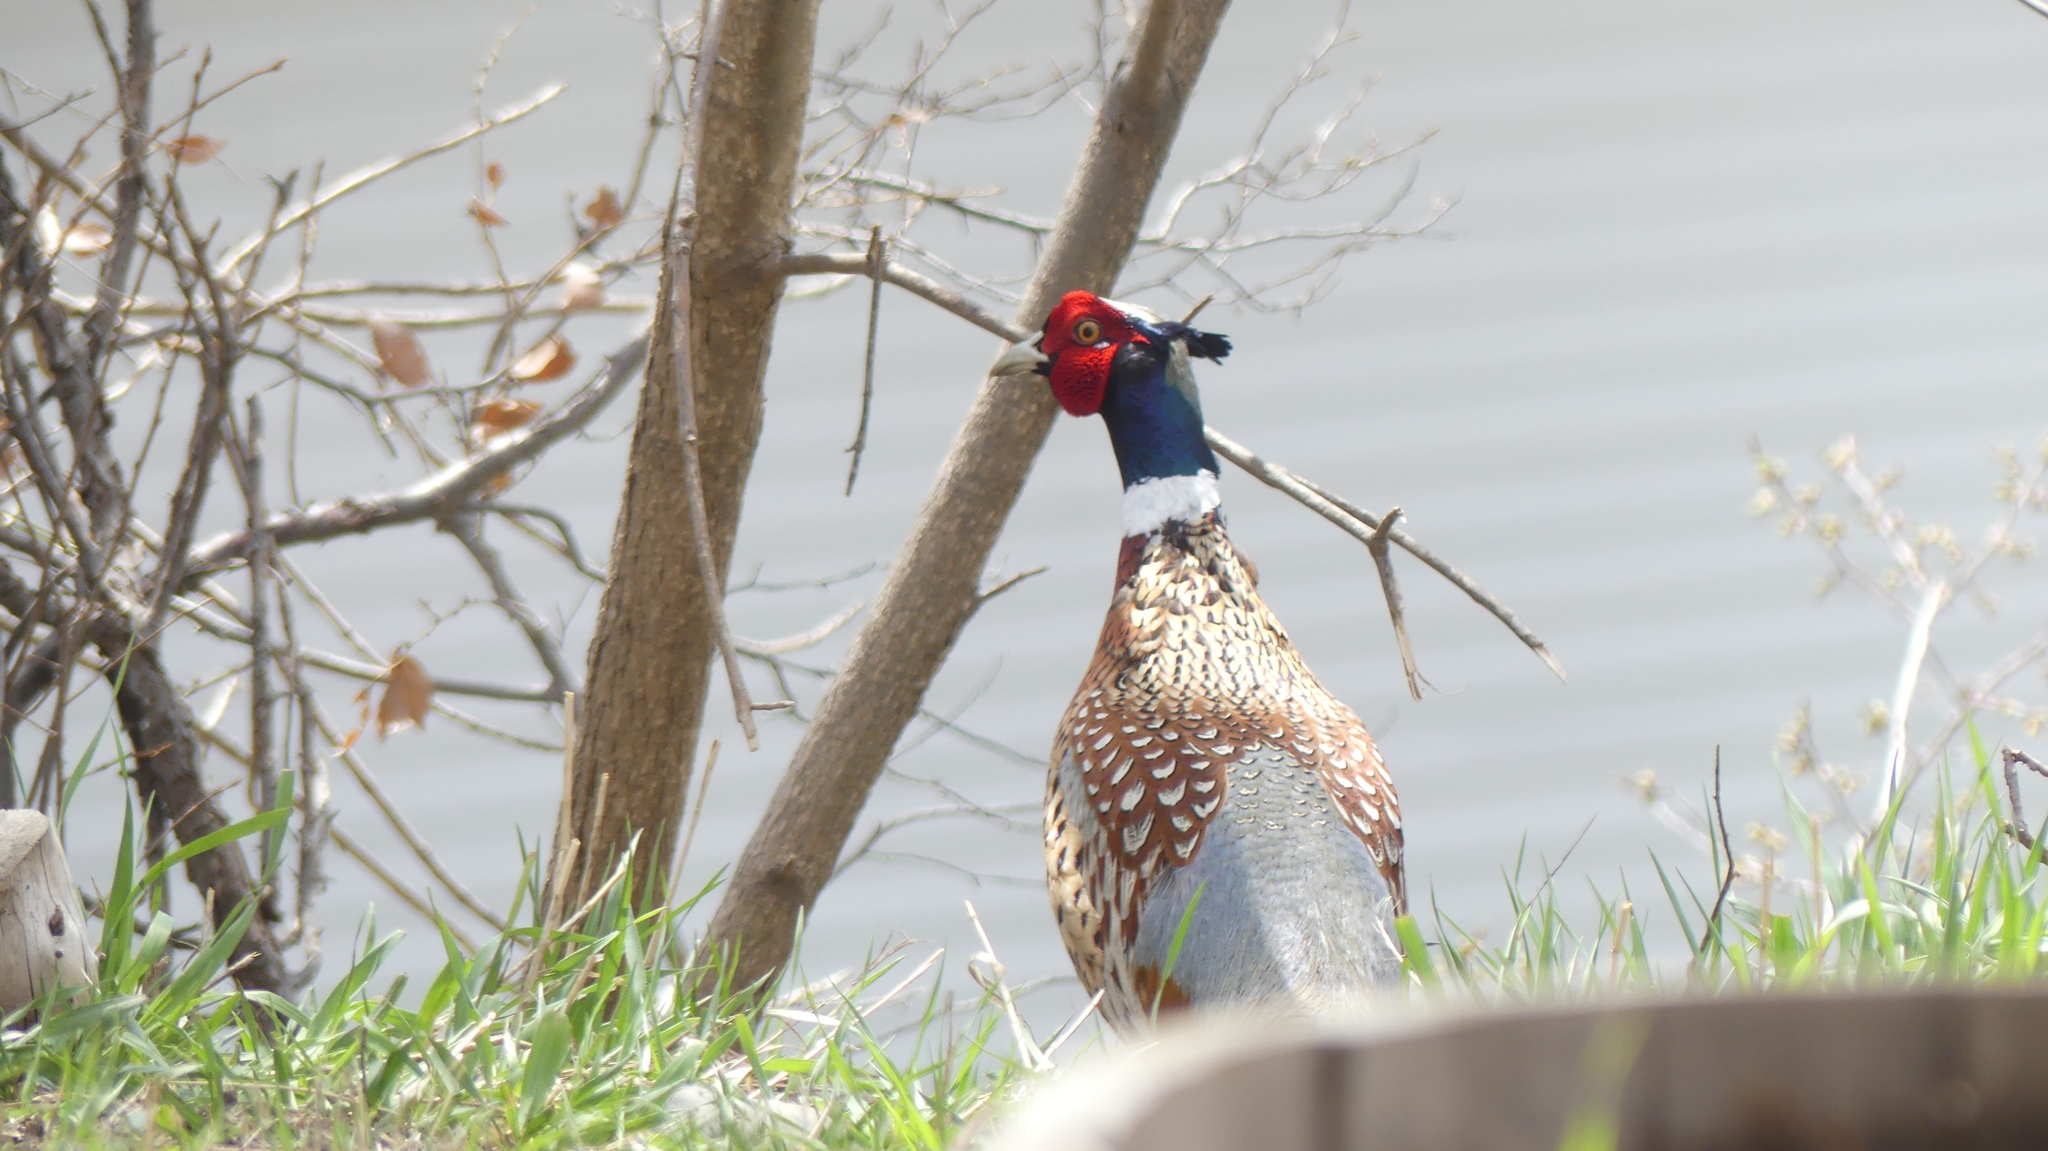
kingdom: Animalia
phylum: Chordata
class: Aves
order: Galliformes
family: Phasianidae
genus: Phasianus
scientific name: Phasianus colchicus
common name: Common pheasant
